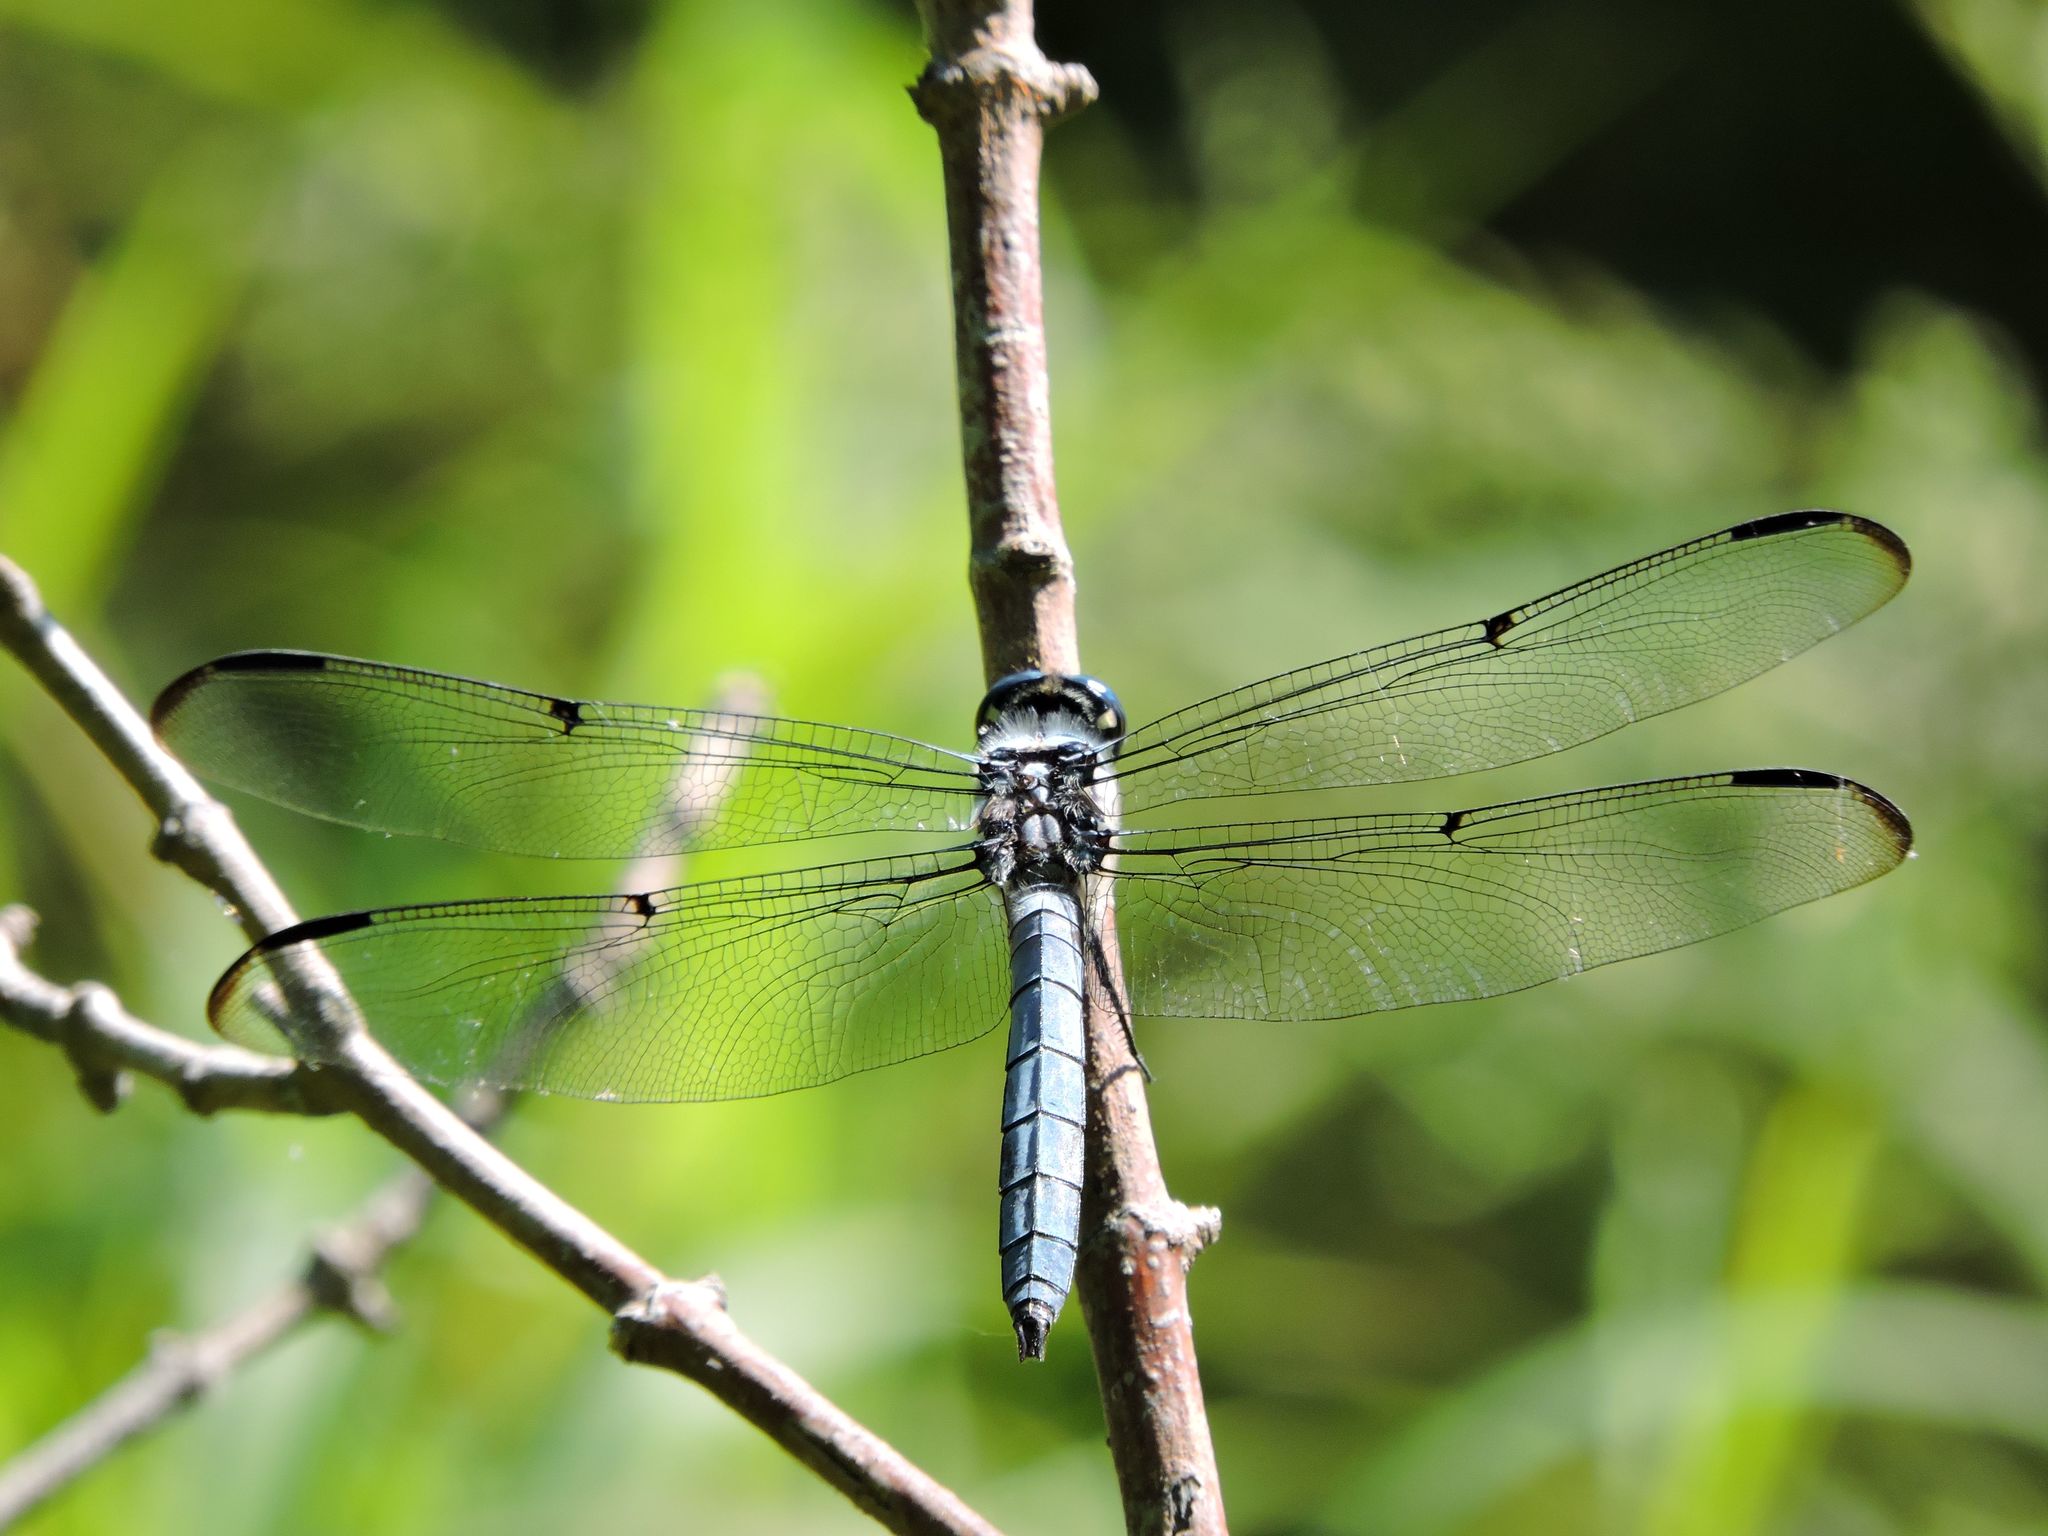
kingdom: Animalia
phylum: Arthropoda
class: Insecta
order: Odonata
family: Libellulidae
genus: Libellula
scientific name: Libellula vibrans
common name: Great blue skimmer
